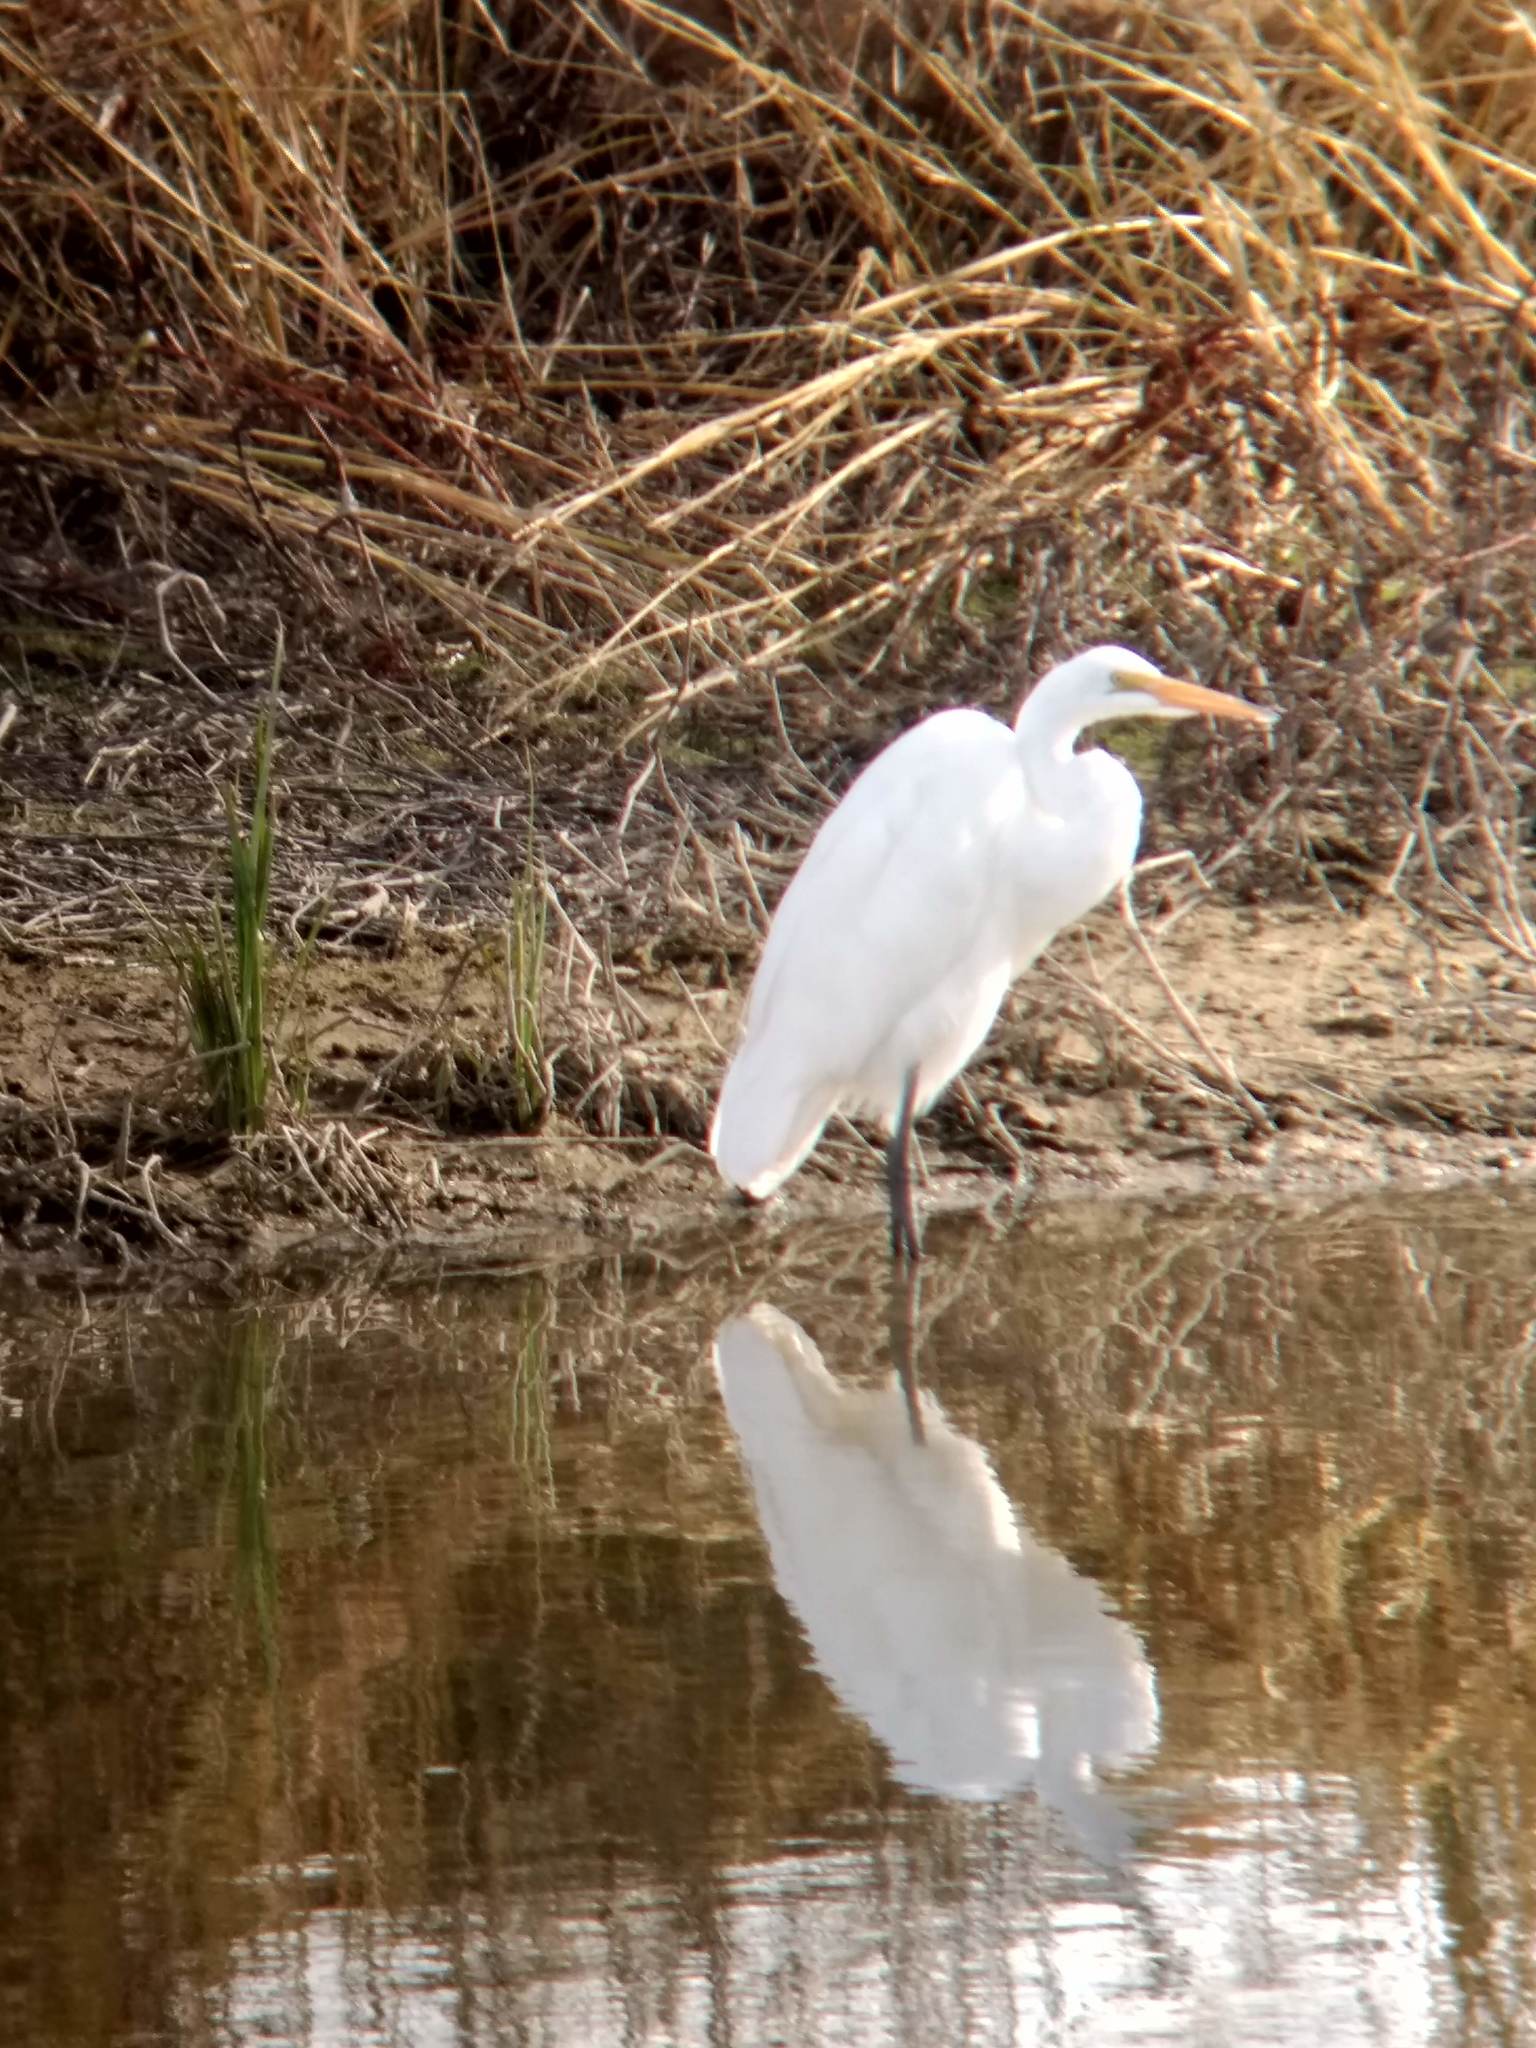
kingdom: Animalia
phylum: Chordata
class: Aves
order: Pelecaniformes
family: Ardeidae
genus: Ardea
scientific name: Ardea alba
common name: Great egret
